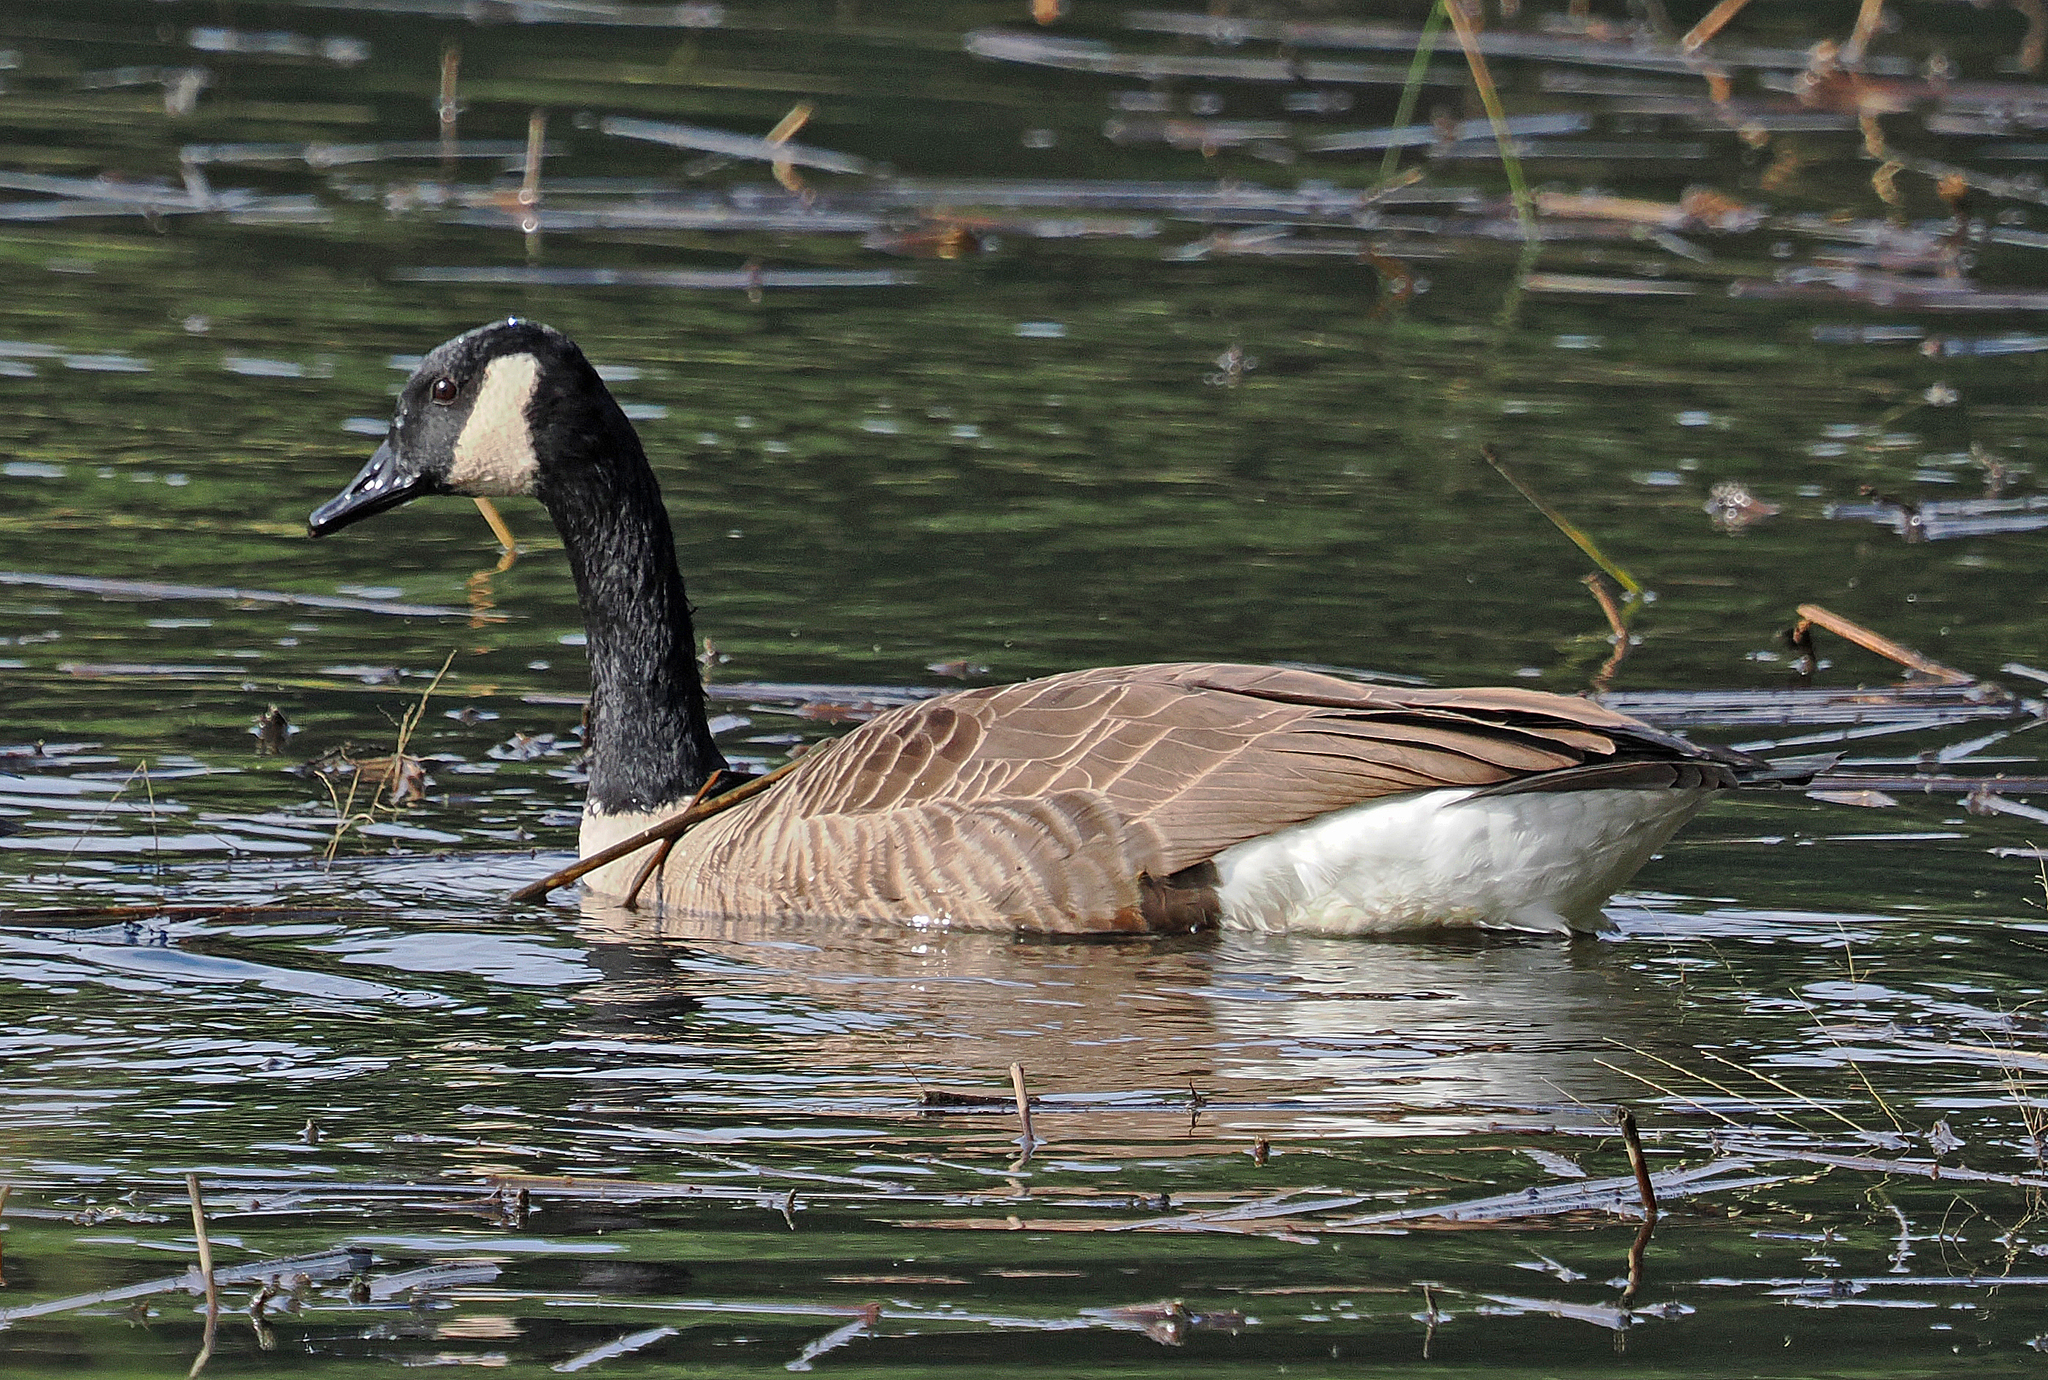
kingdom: Animalia
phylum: Chordata
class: Aves
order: Anseriformes
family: Anatidae
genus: Branta
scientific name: Branta canadensis
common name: Canada goose
